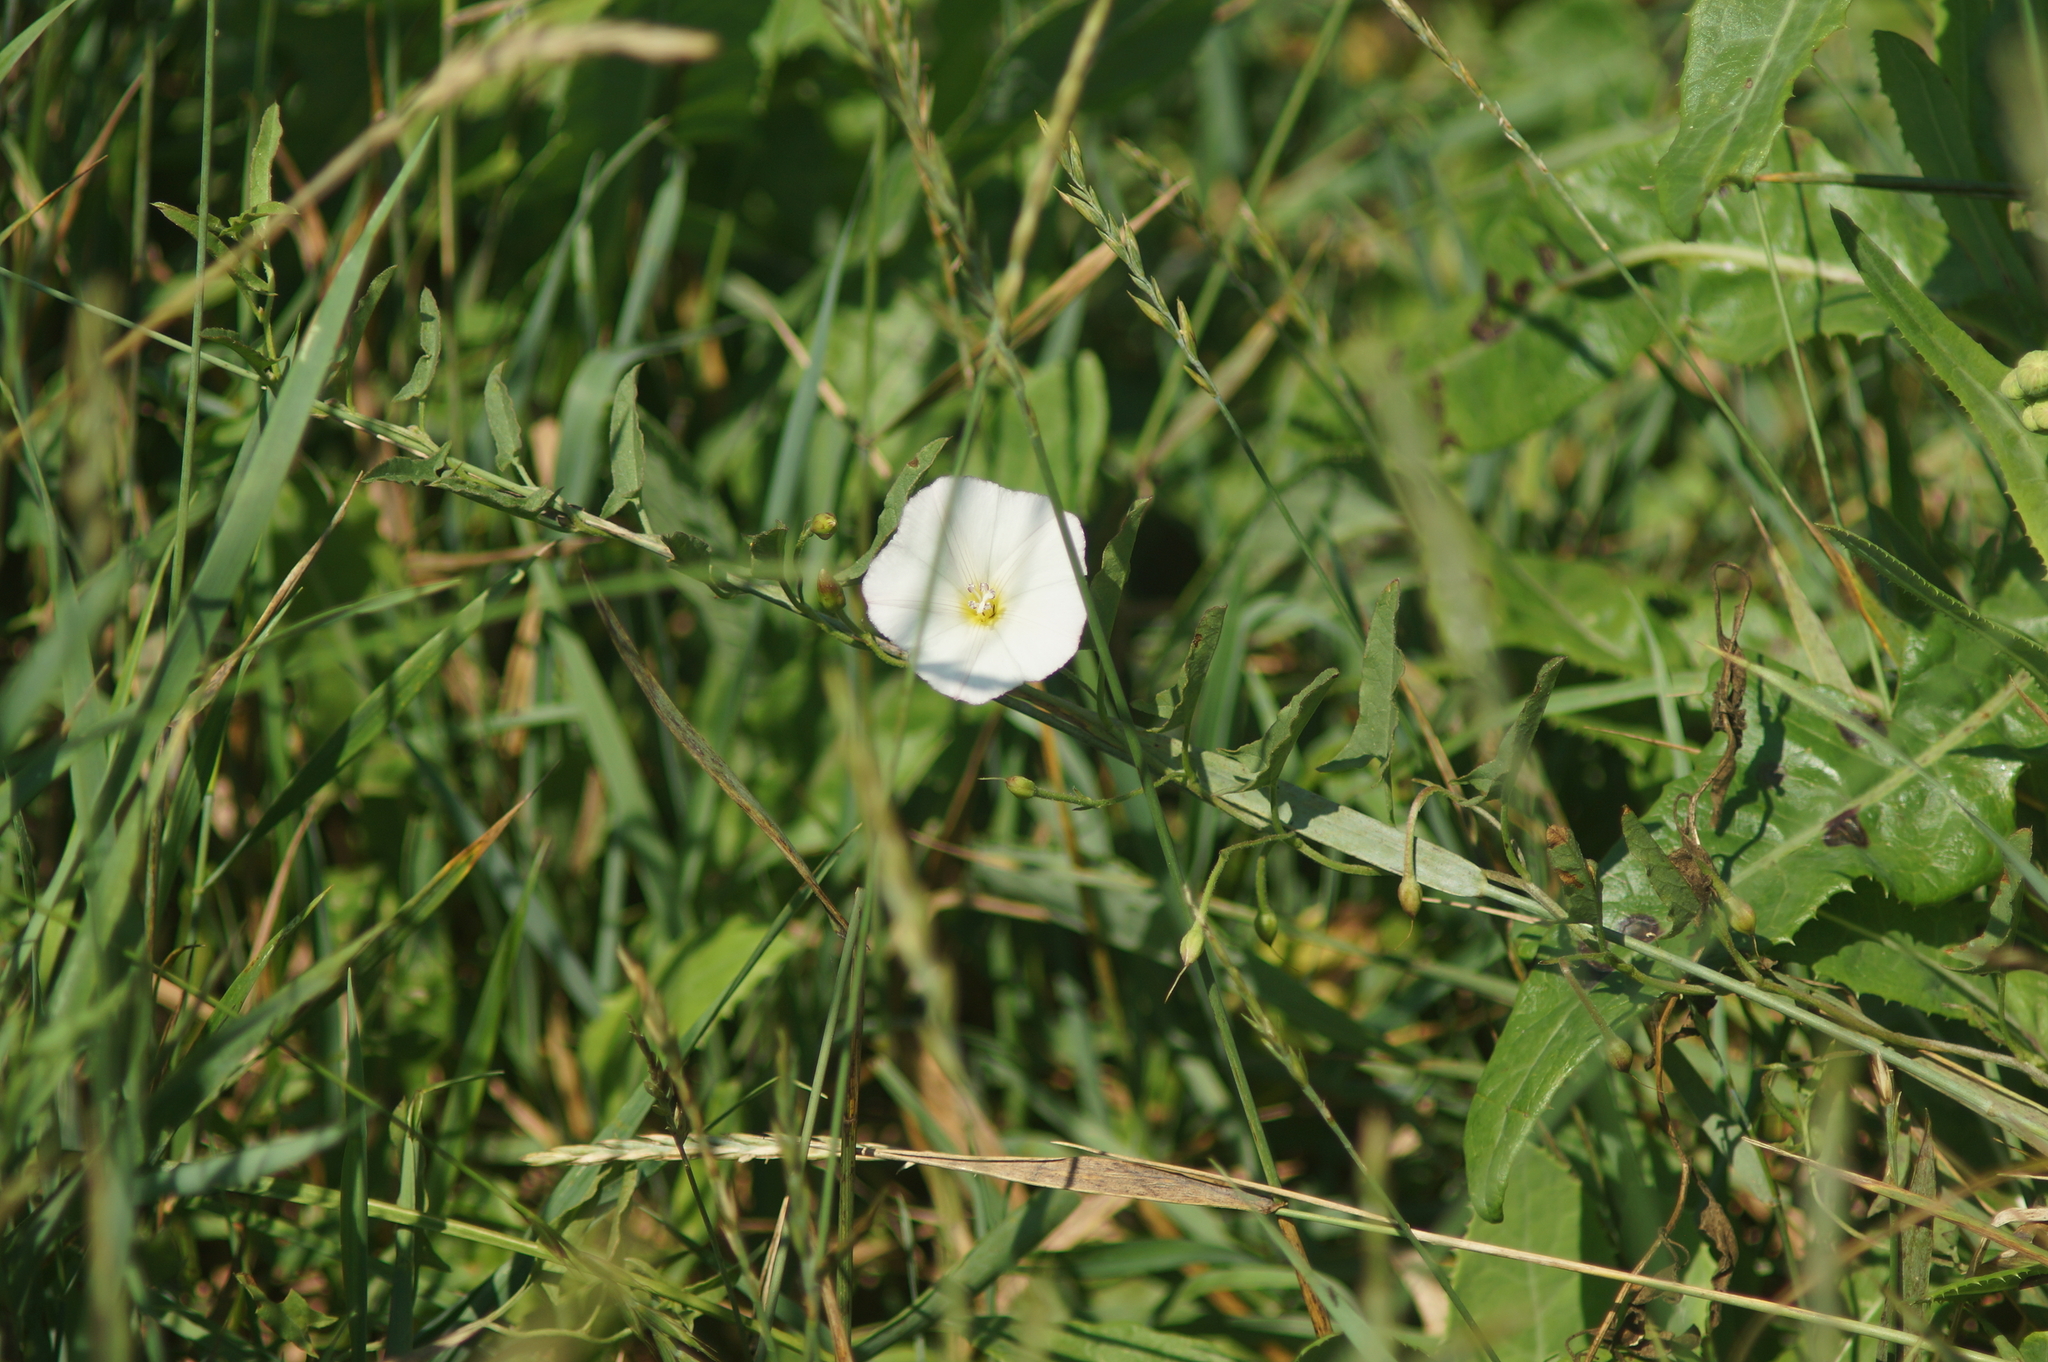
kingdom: Plantae
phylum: Tracheophyta
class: Magnoliopsida
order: Solanales
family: Convolvulaceae
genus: Convolvulus
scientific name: Convolvulus arvensis
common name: Field bindweed
